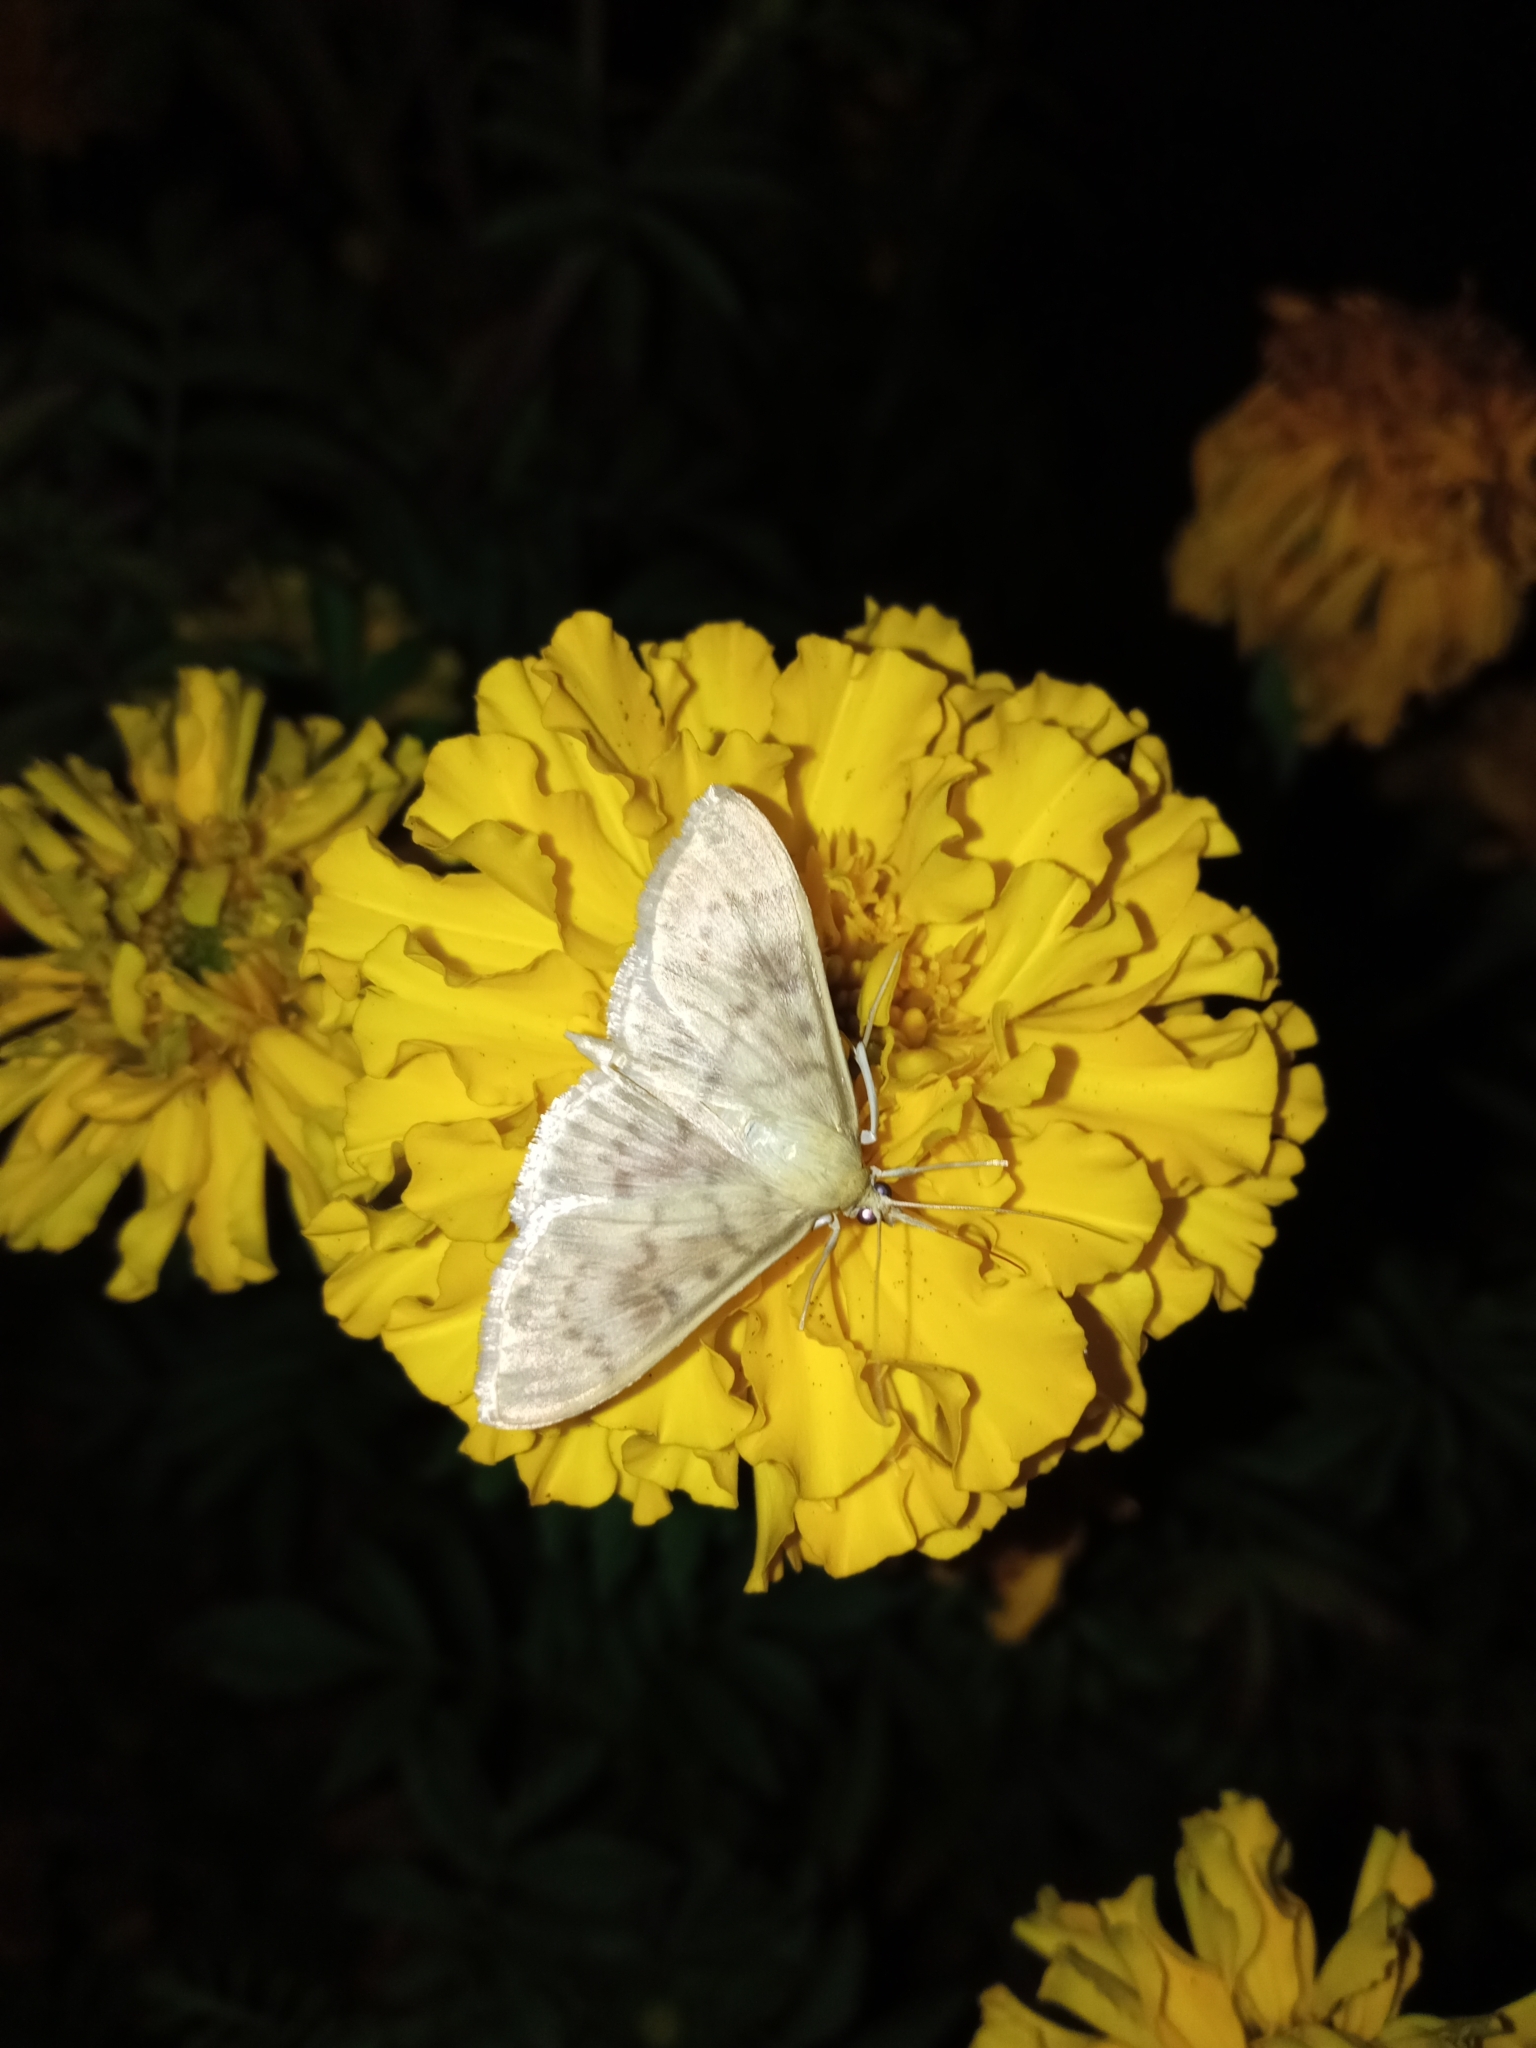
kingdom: Animalia
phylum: Arthropoda
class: Insecta
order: Lepidoptera
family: Crambidae
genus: Patania
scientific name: Patania ruralis
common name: Mother of pearl
